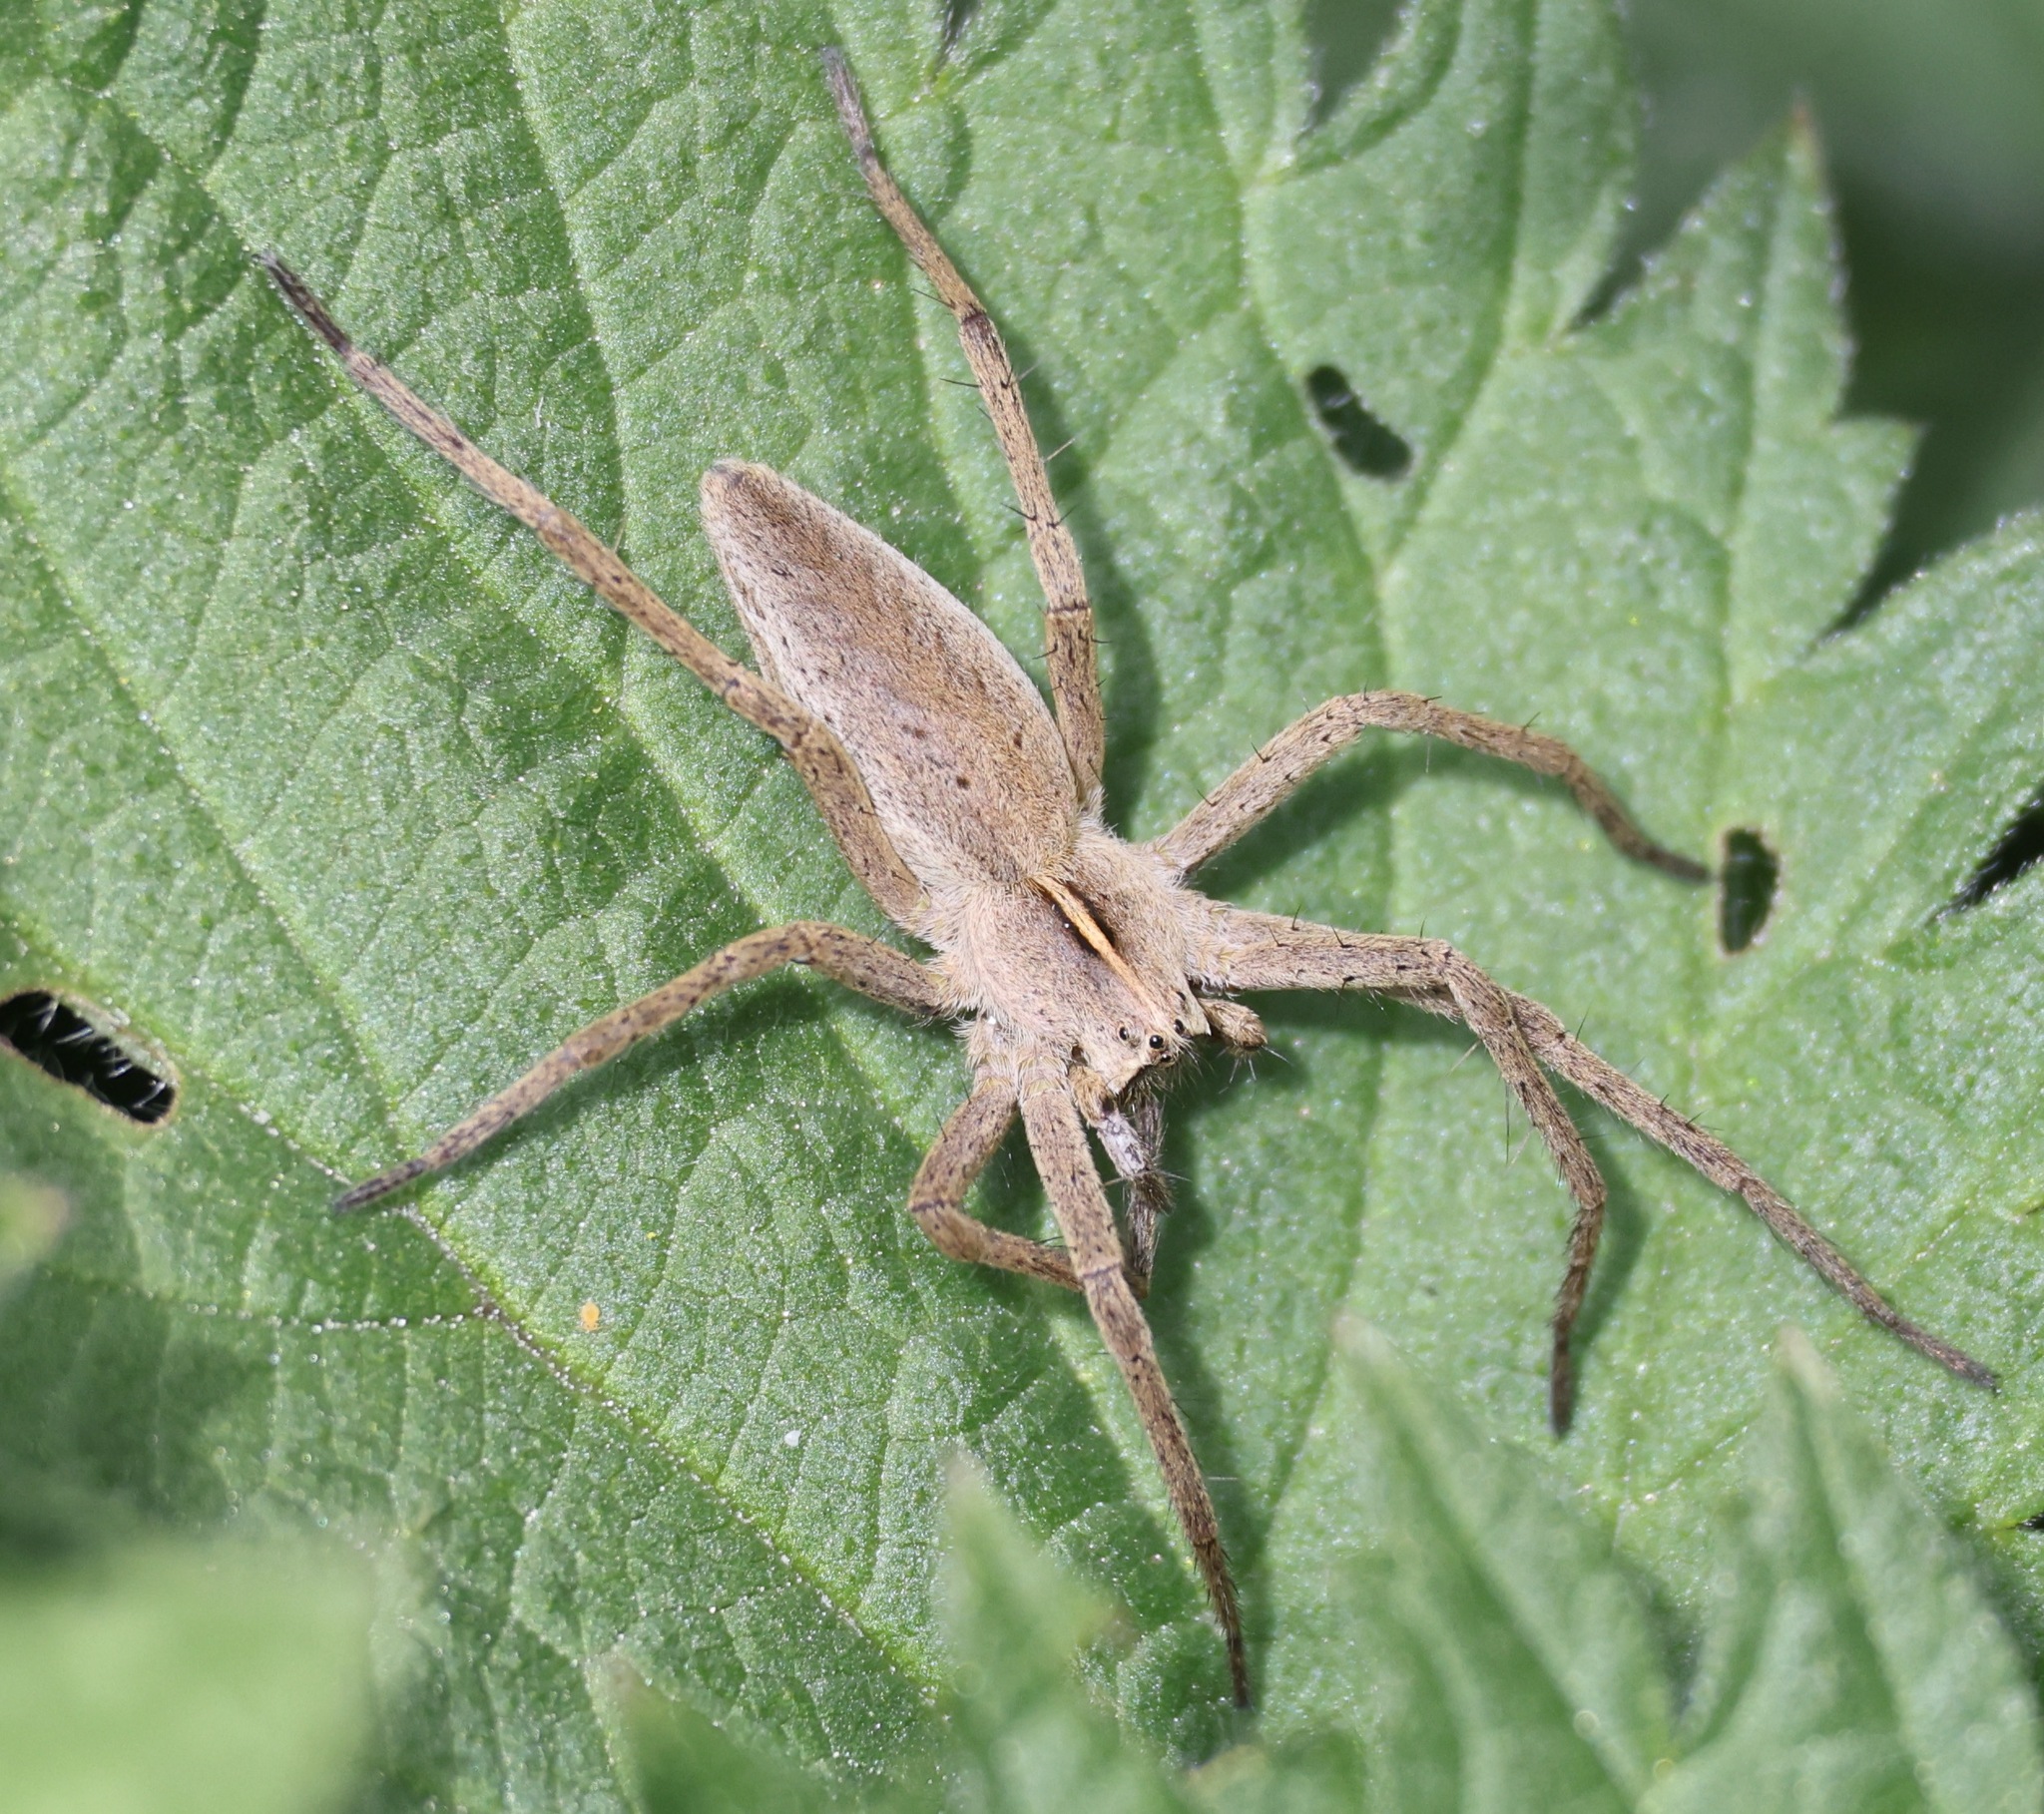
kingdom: Animalia
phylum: Arthropoda
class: Arachnida
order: Araneae
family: Pisauridae
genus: Pisaura
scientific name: Pisaura mirabilis
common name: Tent spider
